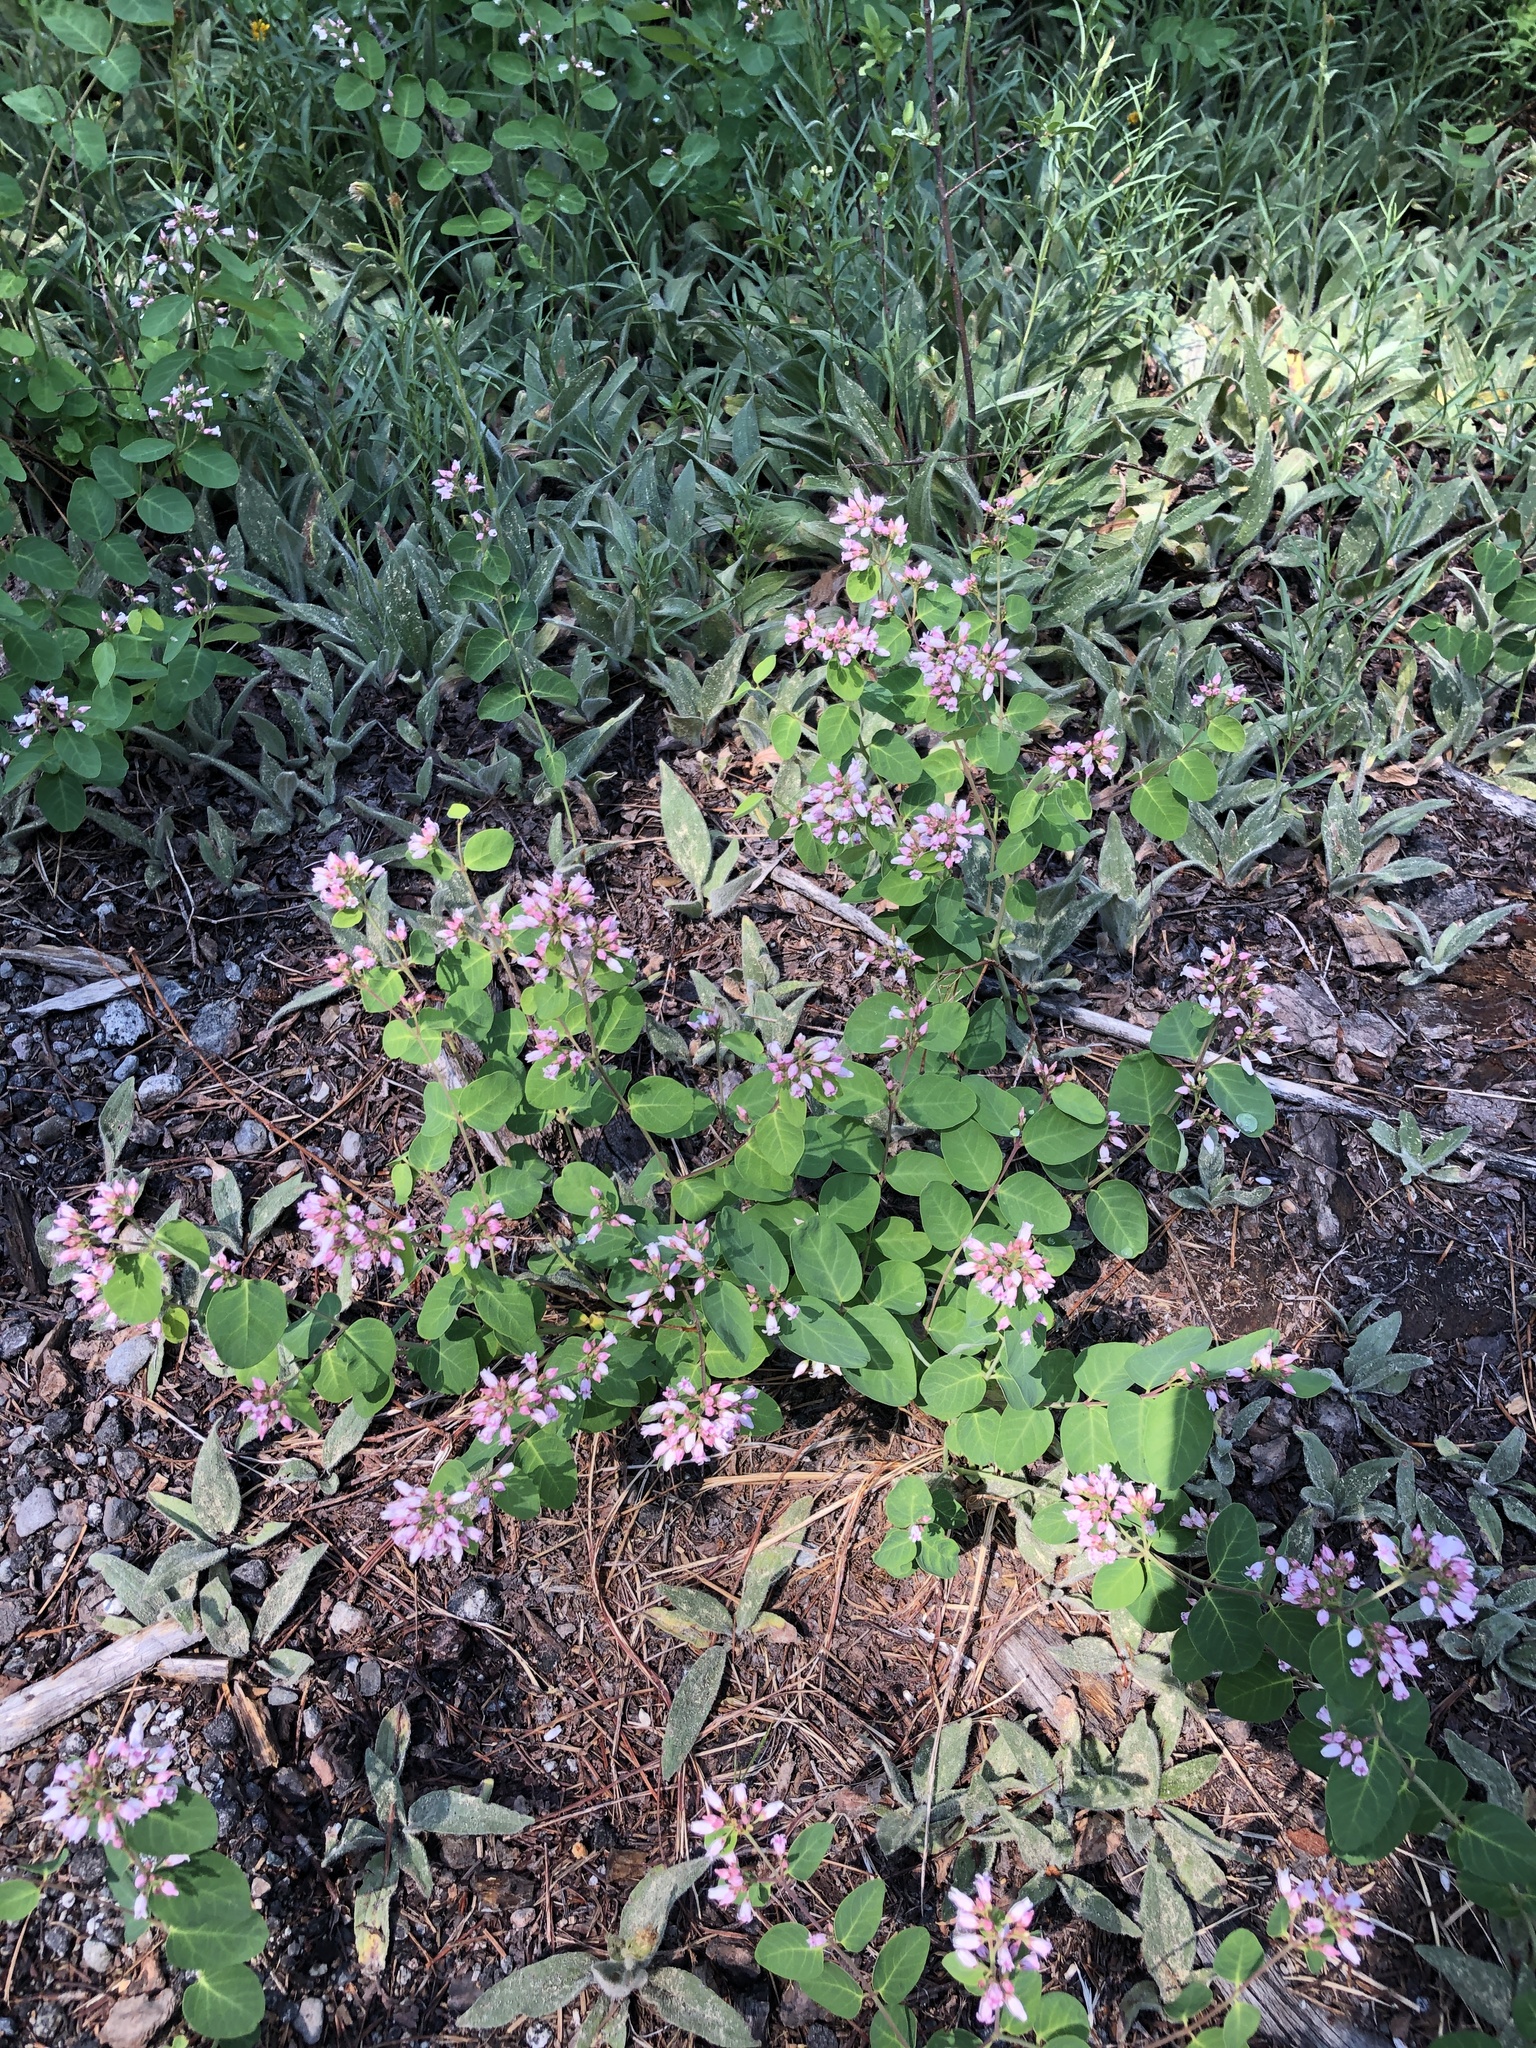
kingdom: Plantae
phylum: Tracheophyta
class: Magnoliopsida
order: Gentianales
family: Apocynaceae
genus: Apocynum
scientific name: Apocynum androsaemifolium
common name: Spreading dogbane
